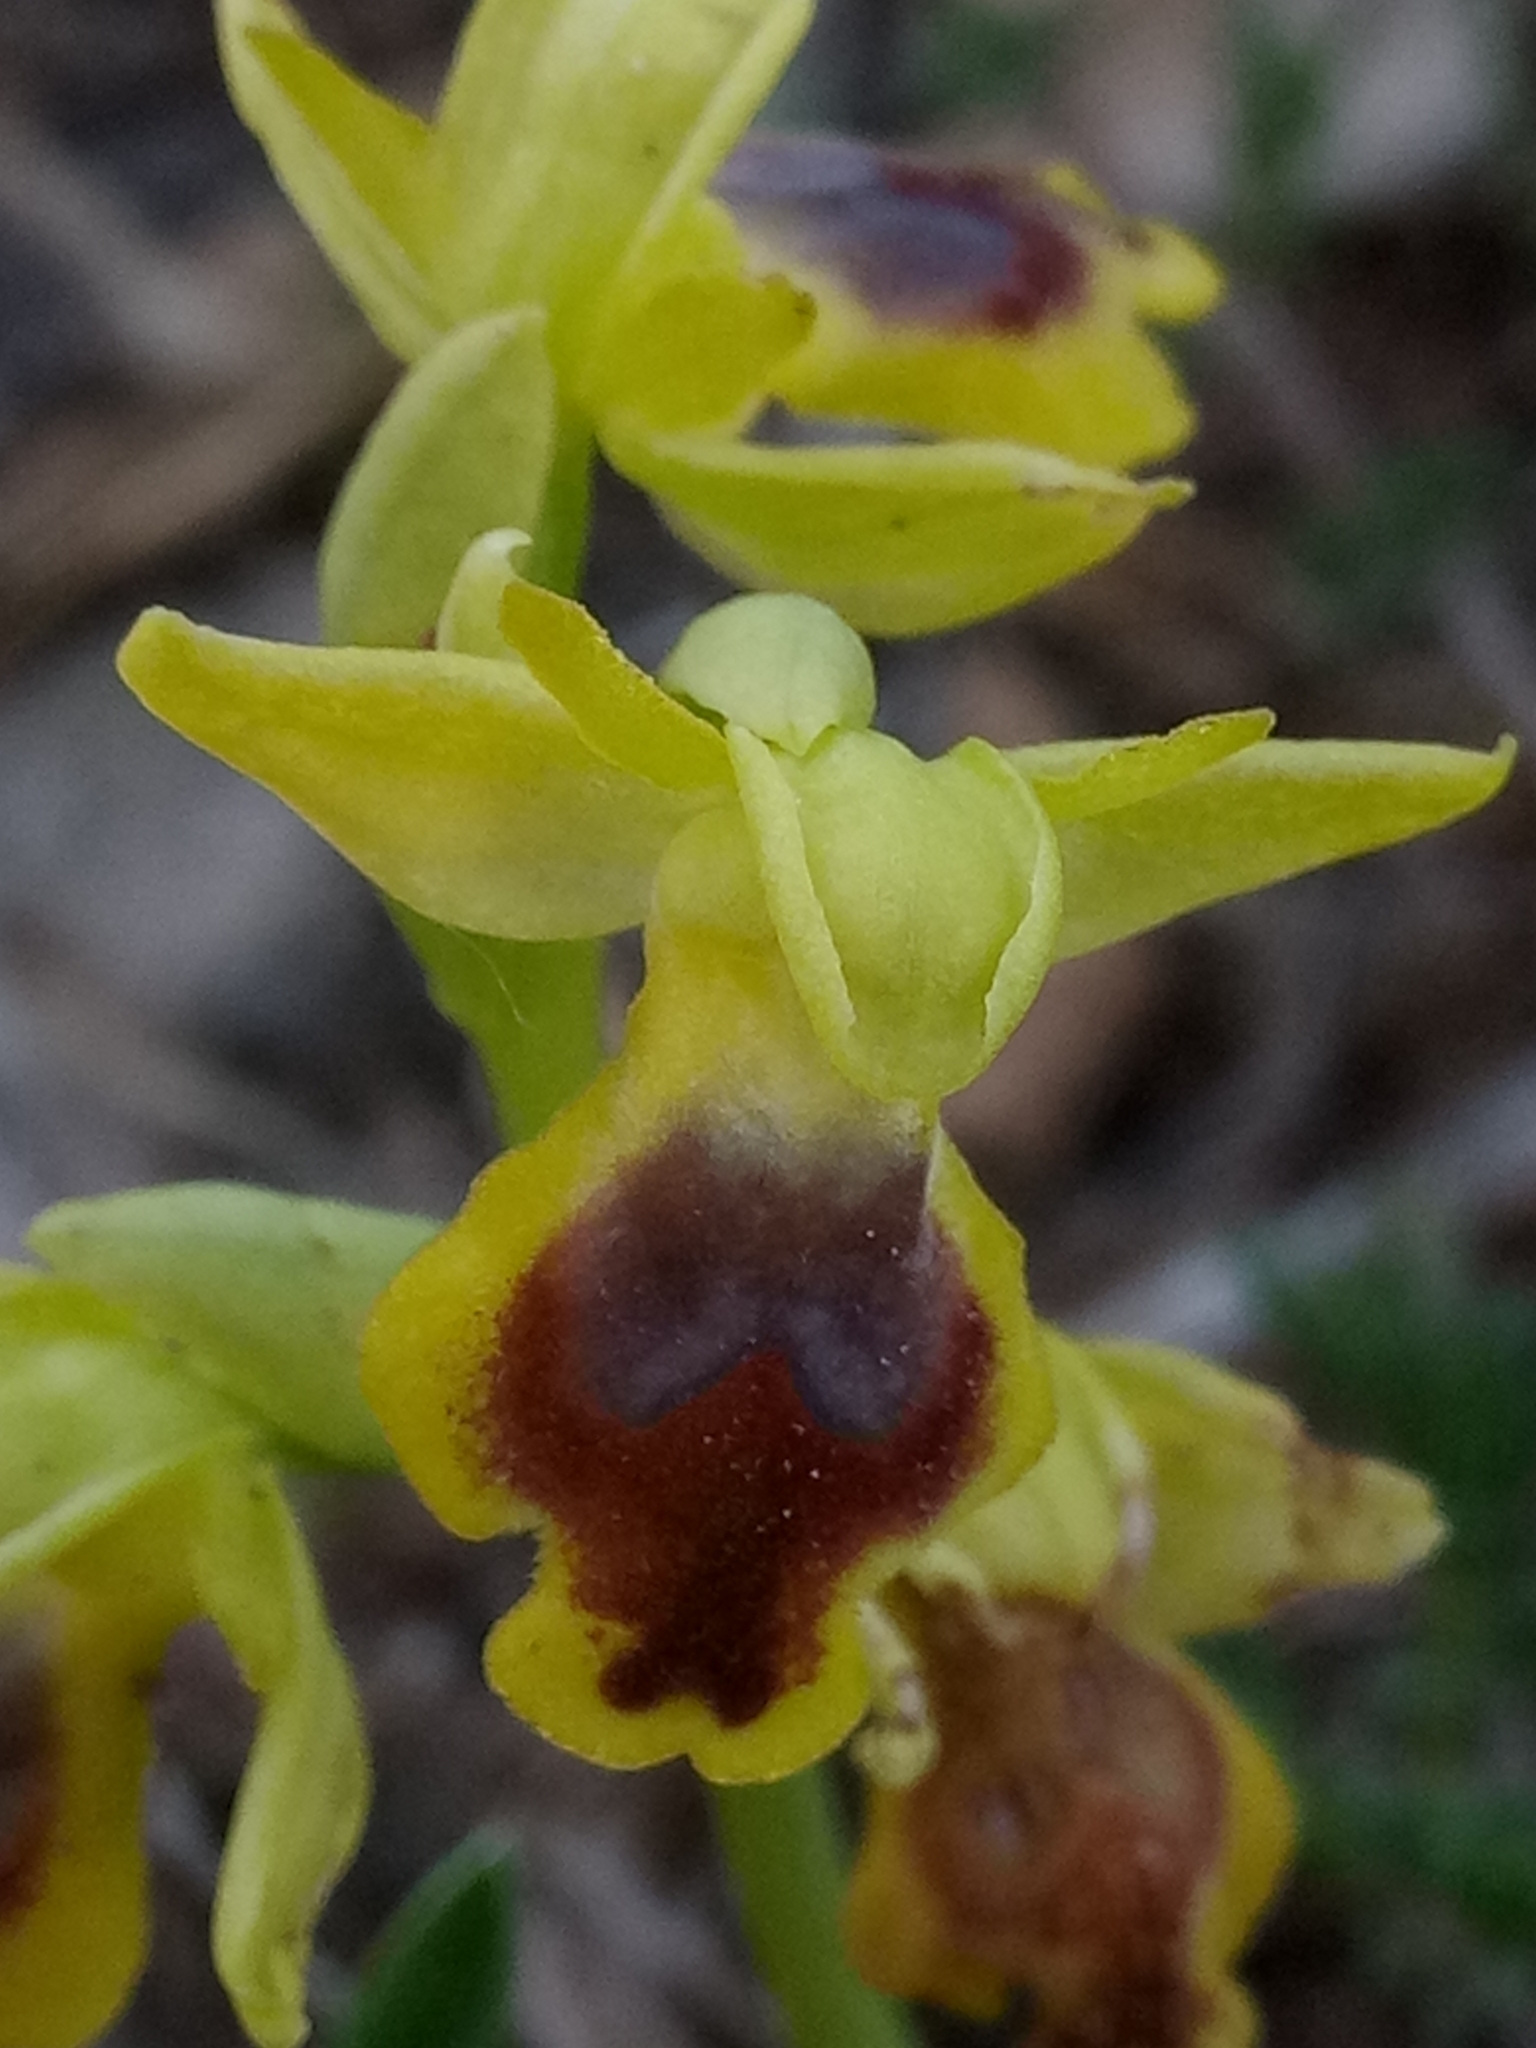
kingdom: Plantae
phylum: Tracheophyta
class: Liliopsida
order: Asparagales
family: Orchidaceae
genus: Ophrys
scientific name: Ophrys battandieri
